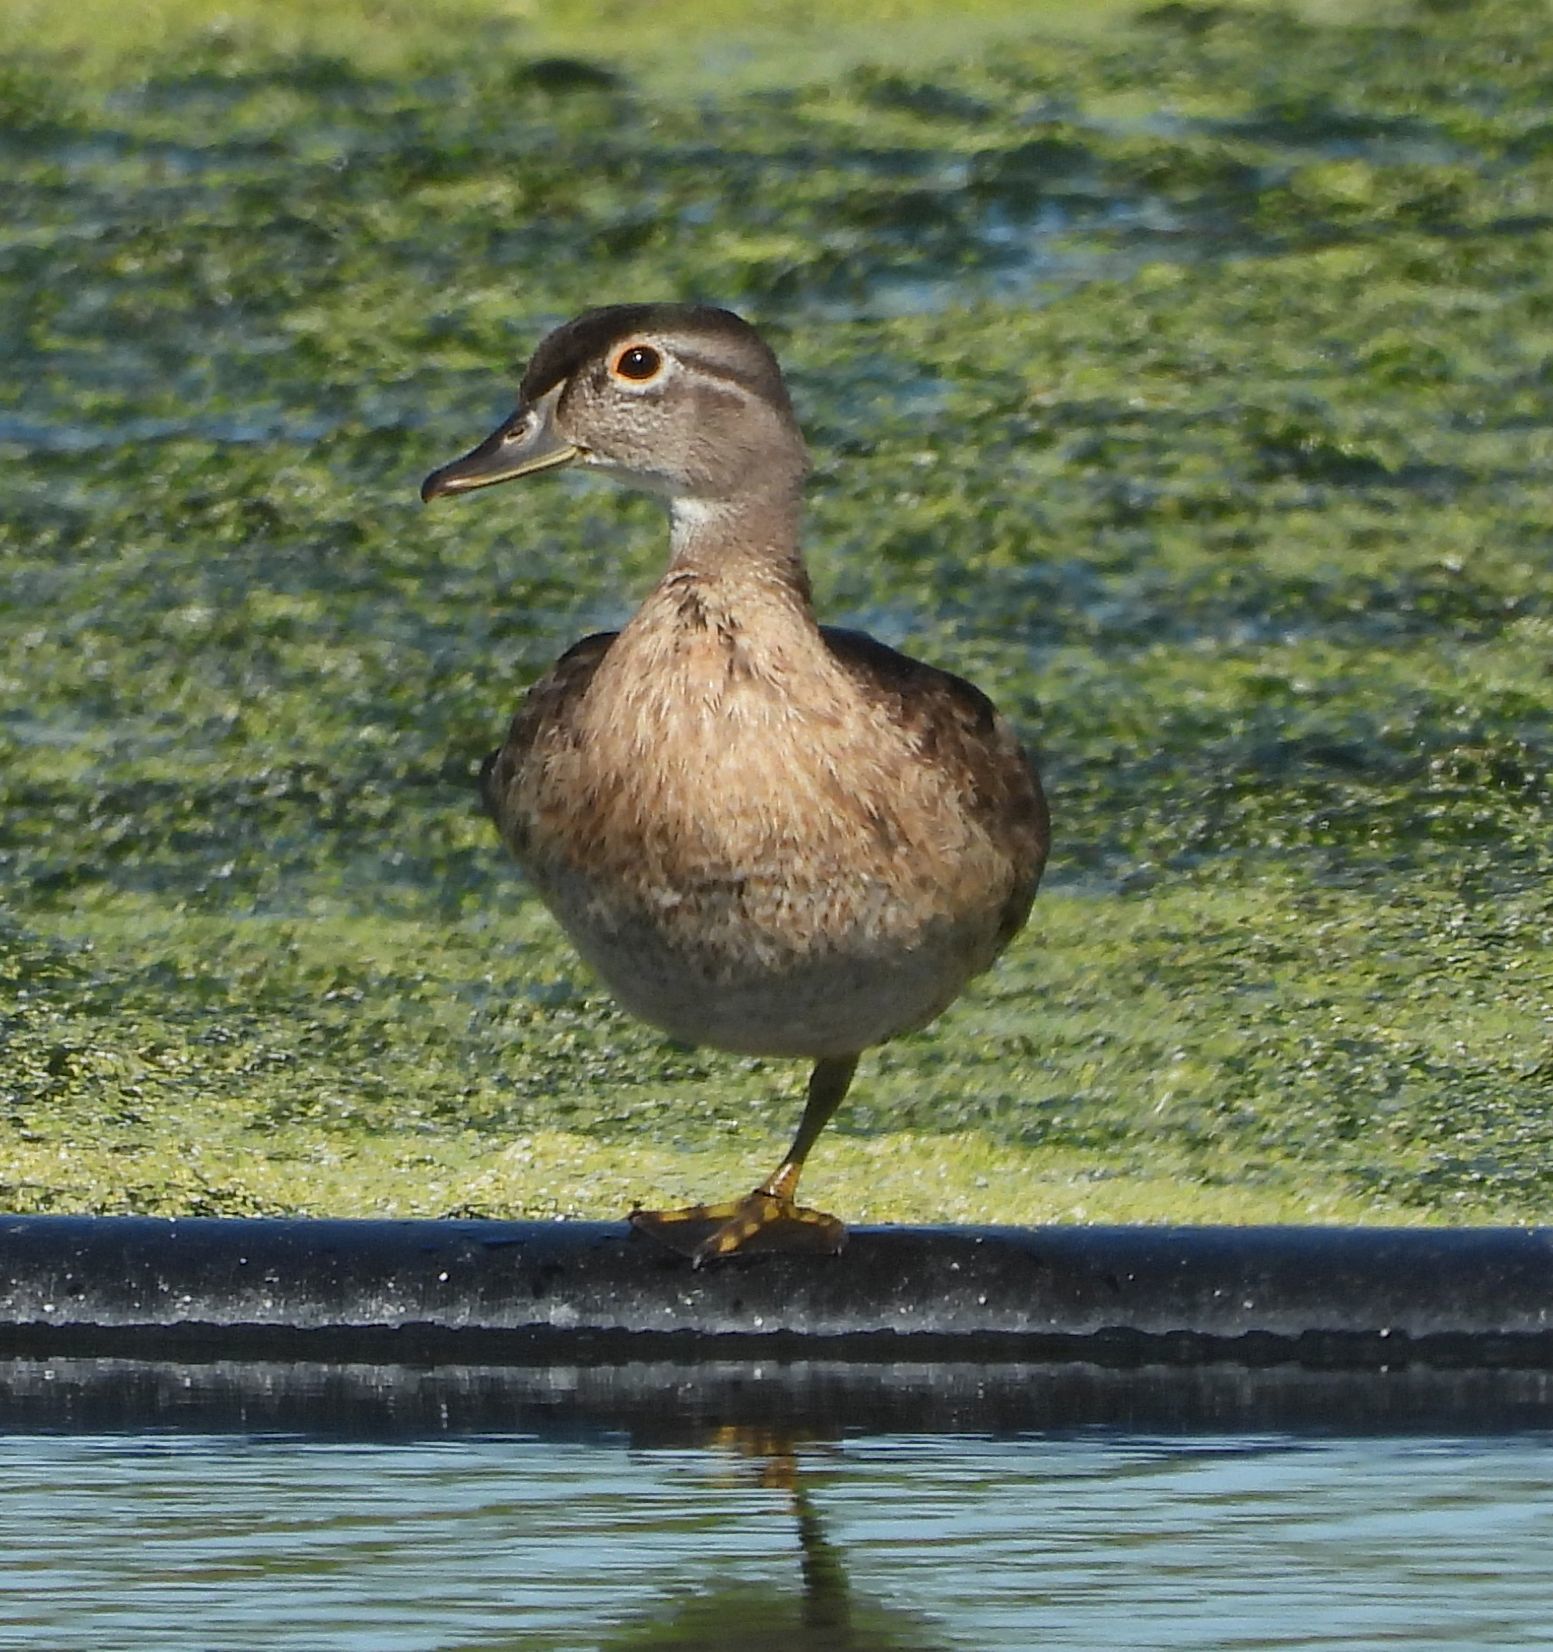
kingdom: Animalia
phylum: Chordata
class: Aves
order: Anseriformes
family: Anatidae
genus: Aix
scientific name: Aix sponsa
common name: Wood duck
